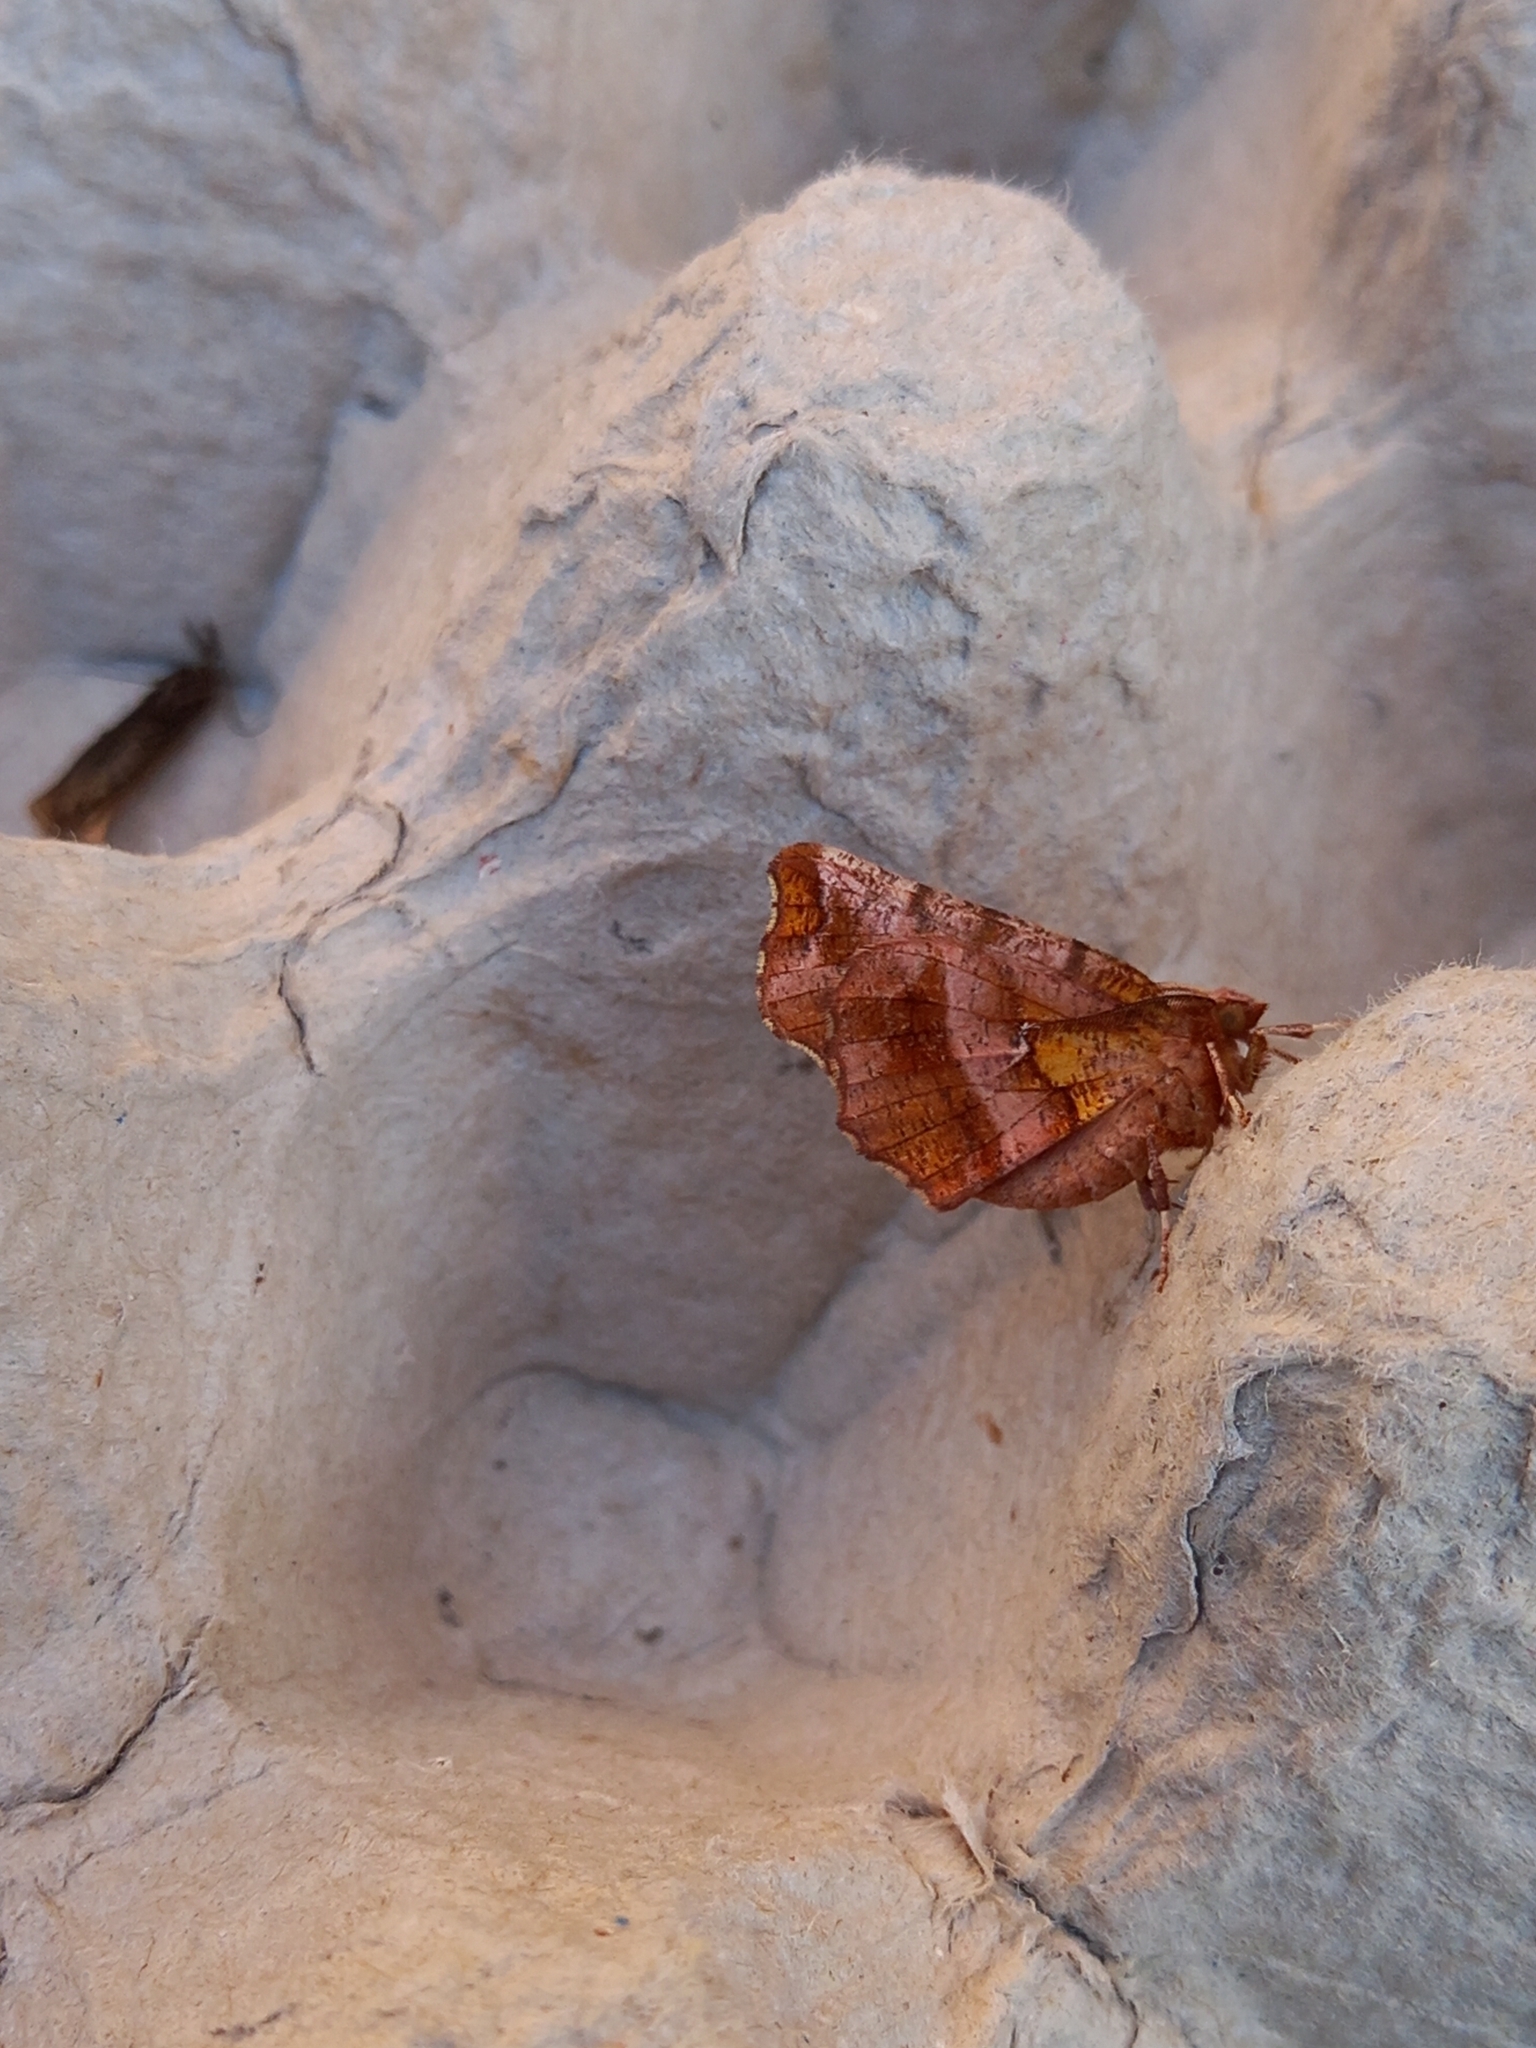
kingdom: Animalia
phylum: Arthropoda
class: Insecta
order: Lepidoptera
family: Geometridae
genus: Selenia
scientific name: Selenia dentaria
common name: Early thorn
